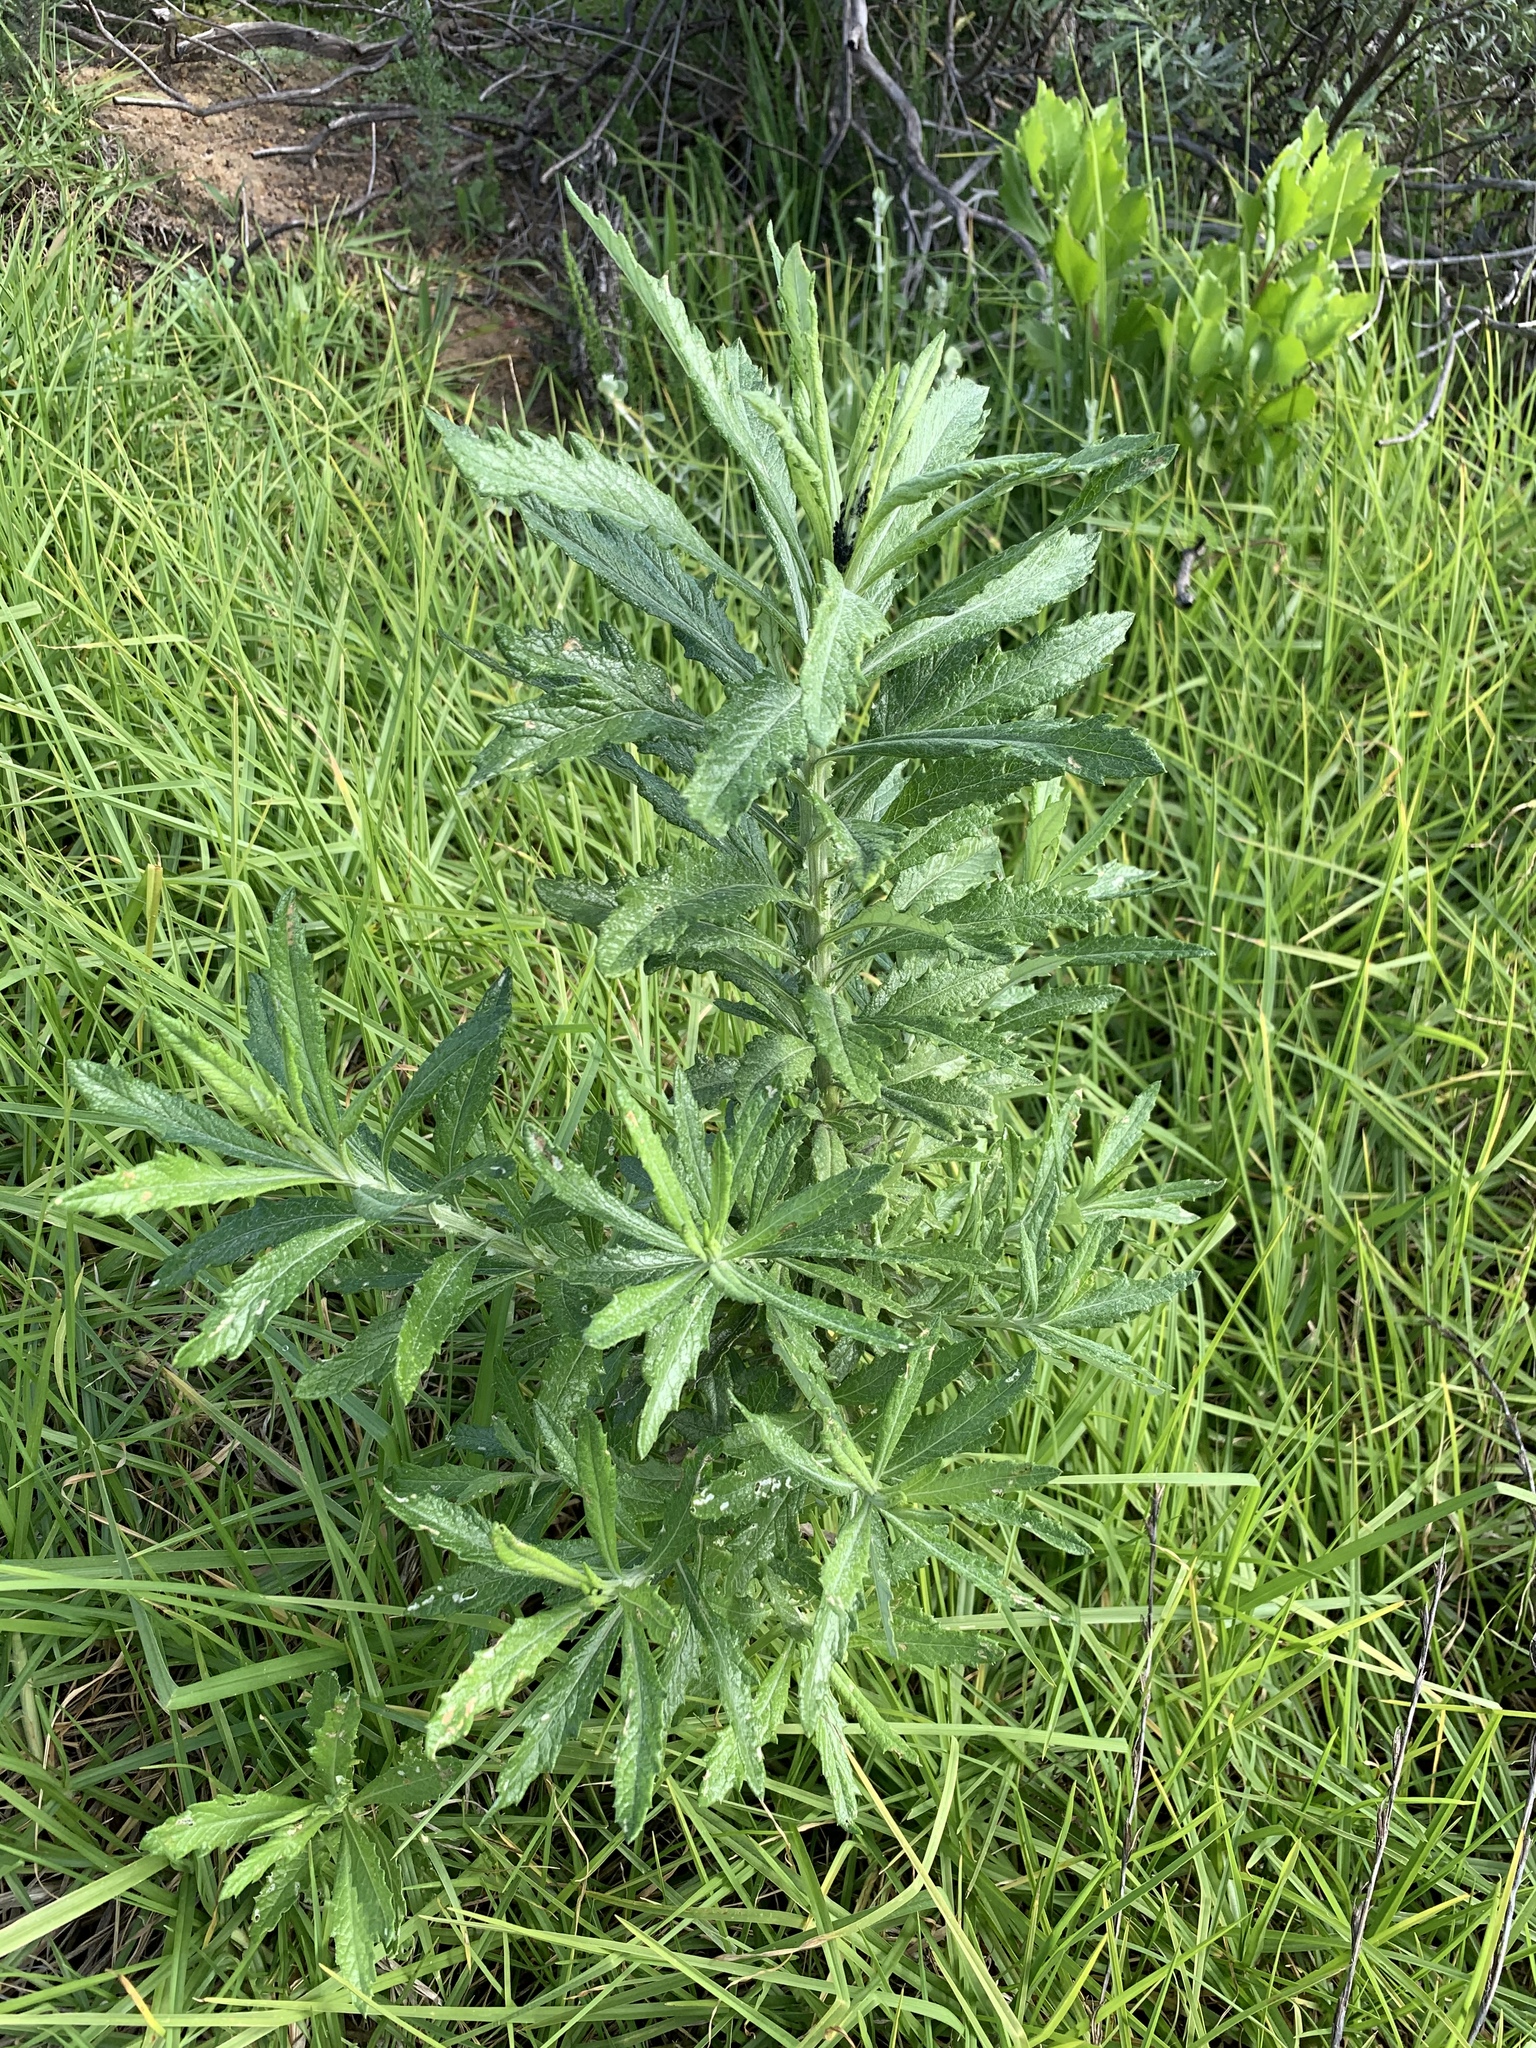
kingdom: Plantae
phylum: Tracheophyta
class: Magnoliopsida
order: Asterales
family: Asteraceae
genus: Senecio
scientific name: Senecio pterophorus
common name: Shoddy ragwort
